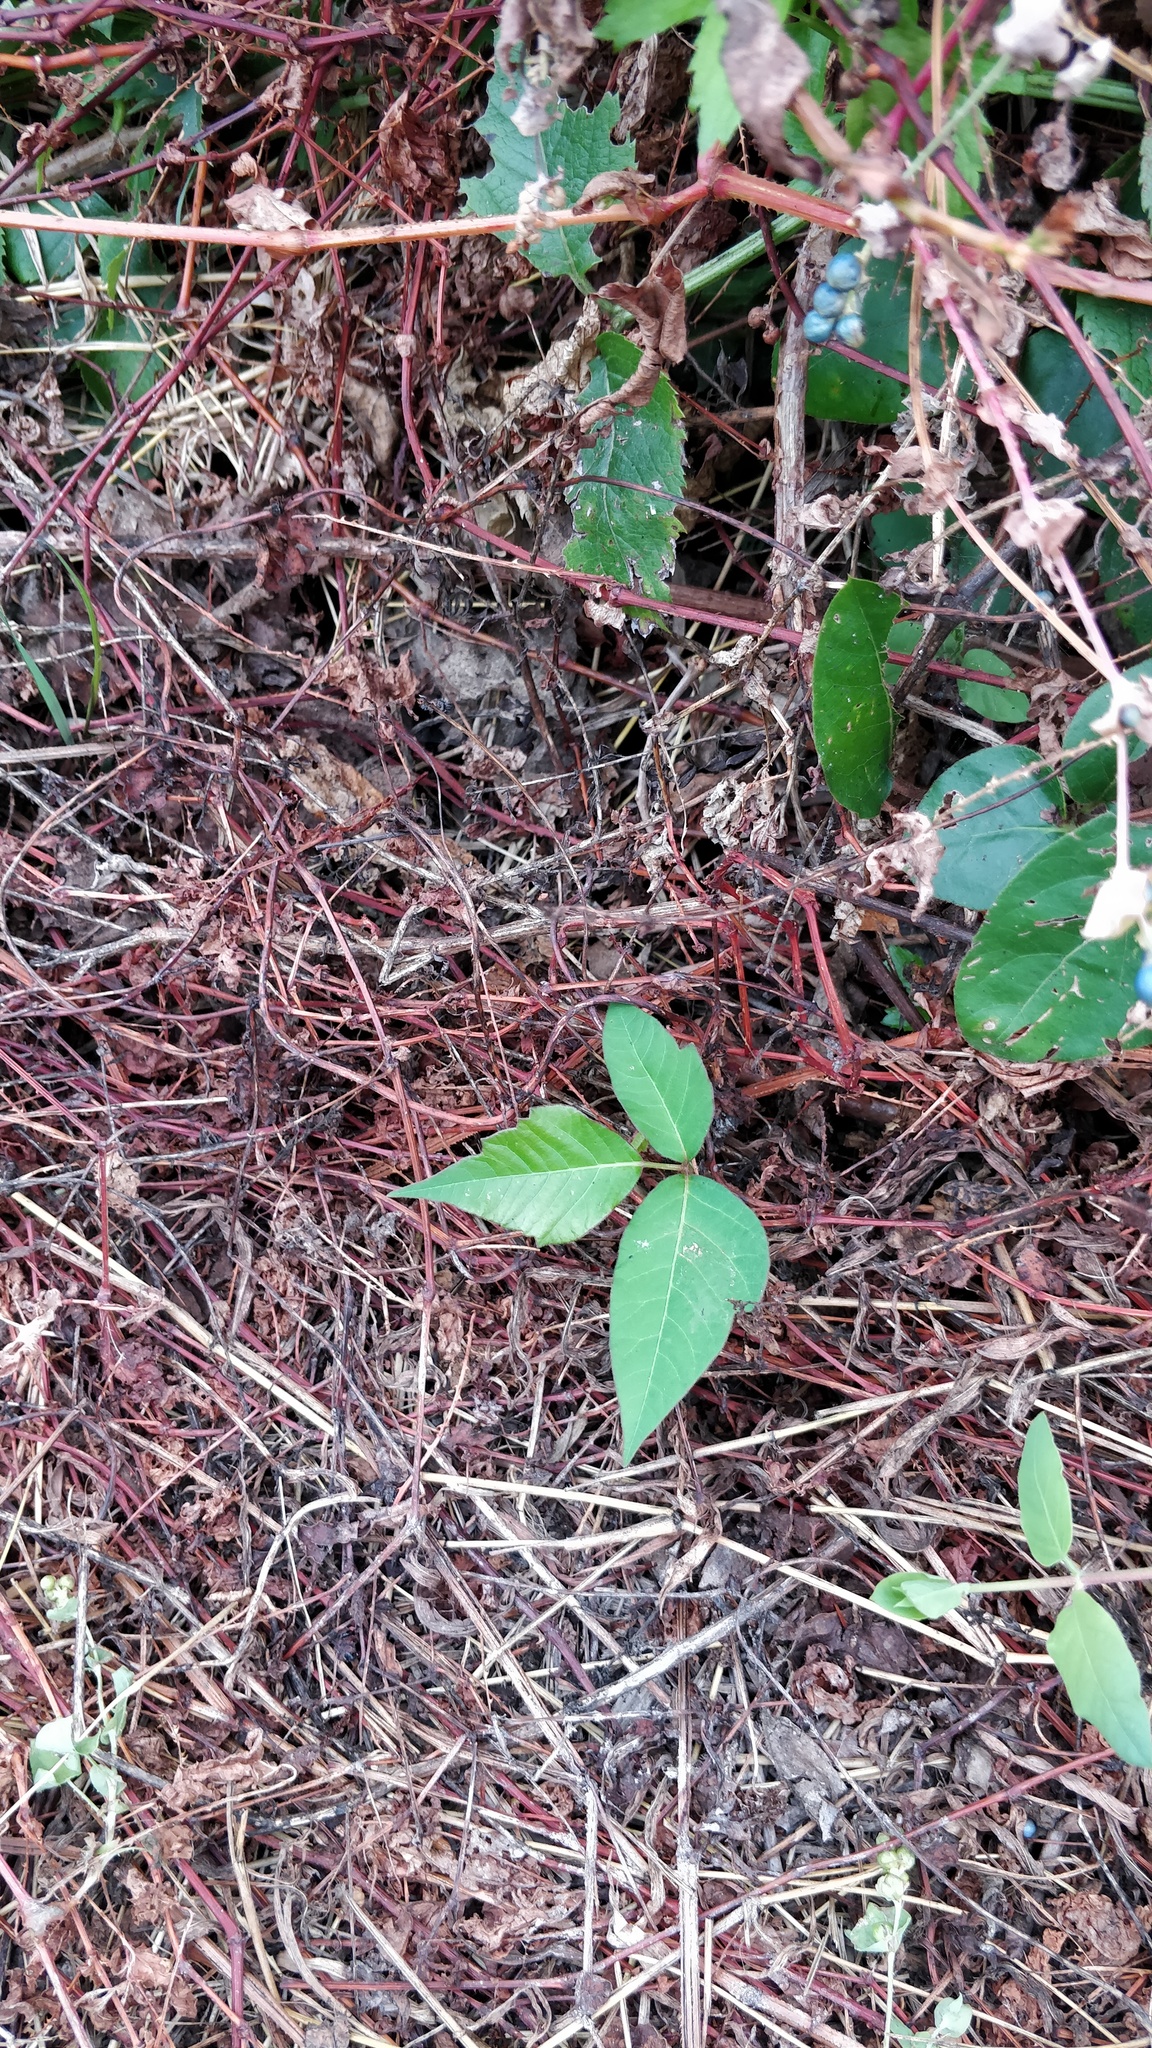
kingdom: Plantae
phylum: Tracheophyta
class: Magnoliopsida
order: Sapindales
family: Anacardiaceae
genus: Toxicodendron
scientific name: Toxicodendron radicans
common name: Poison ivy
